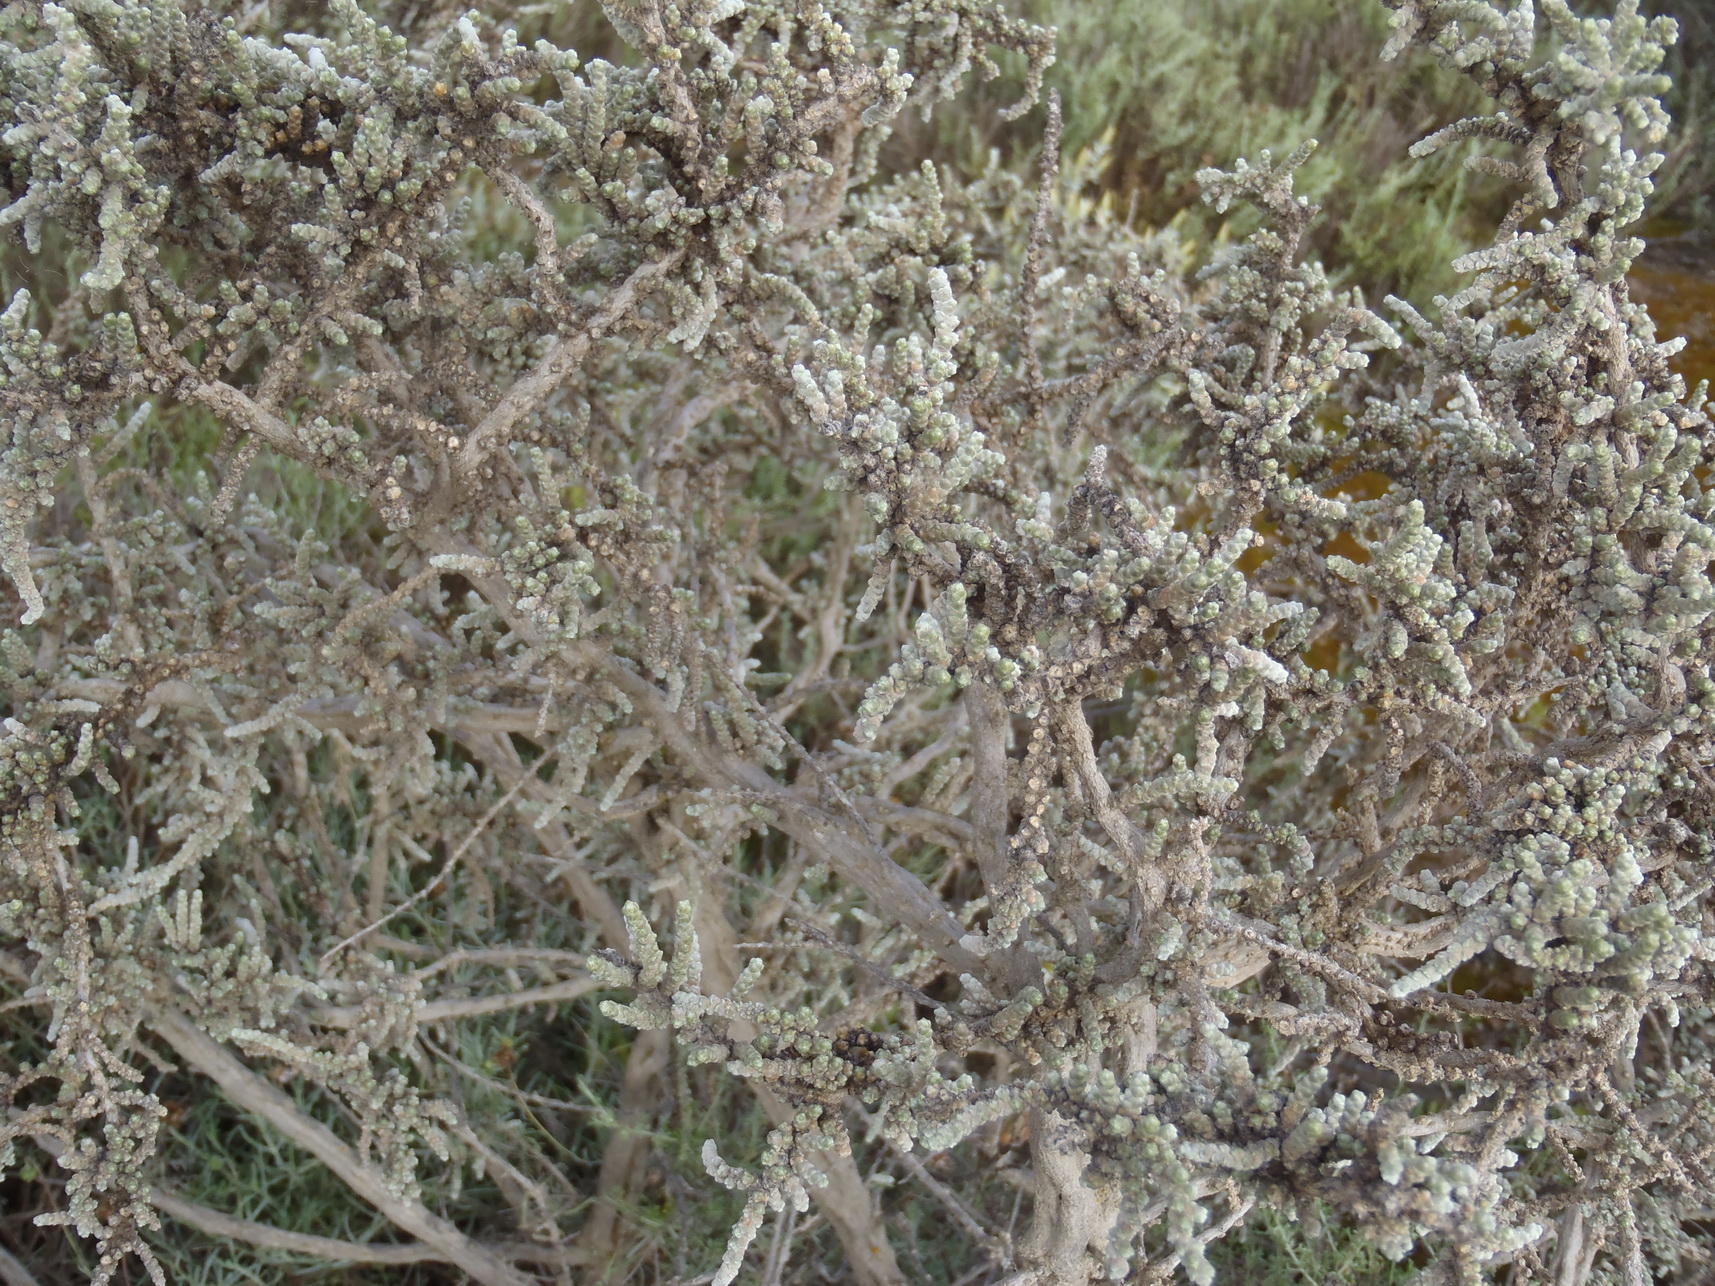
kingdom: Plantae
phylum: Tracheophyta
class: Magnoliopsida
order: Caryophyllales
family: Amaranthaceae
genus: Caroxylon
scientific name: Caroxylon aphyllum
